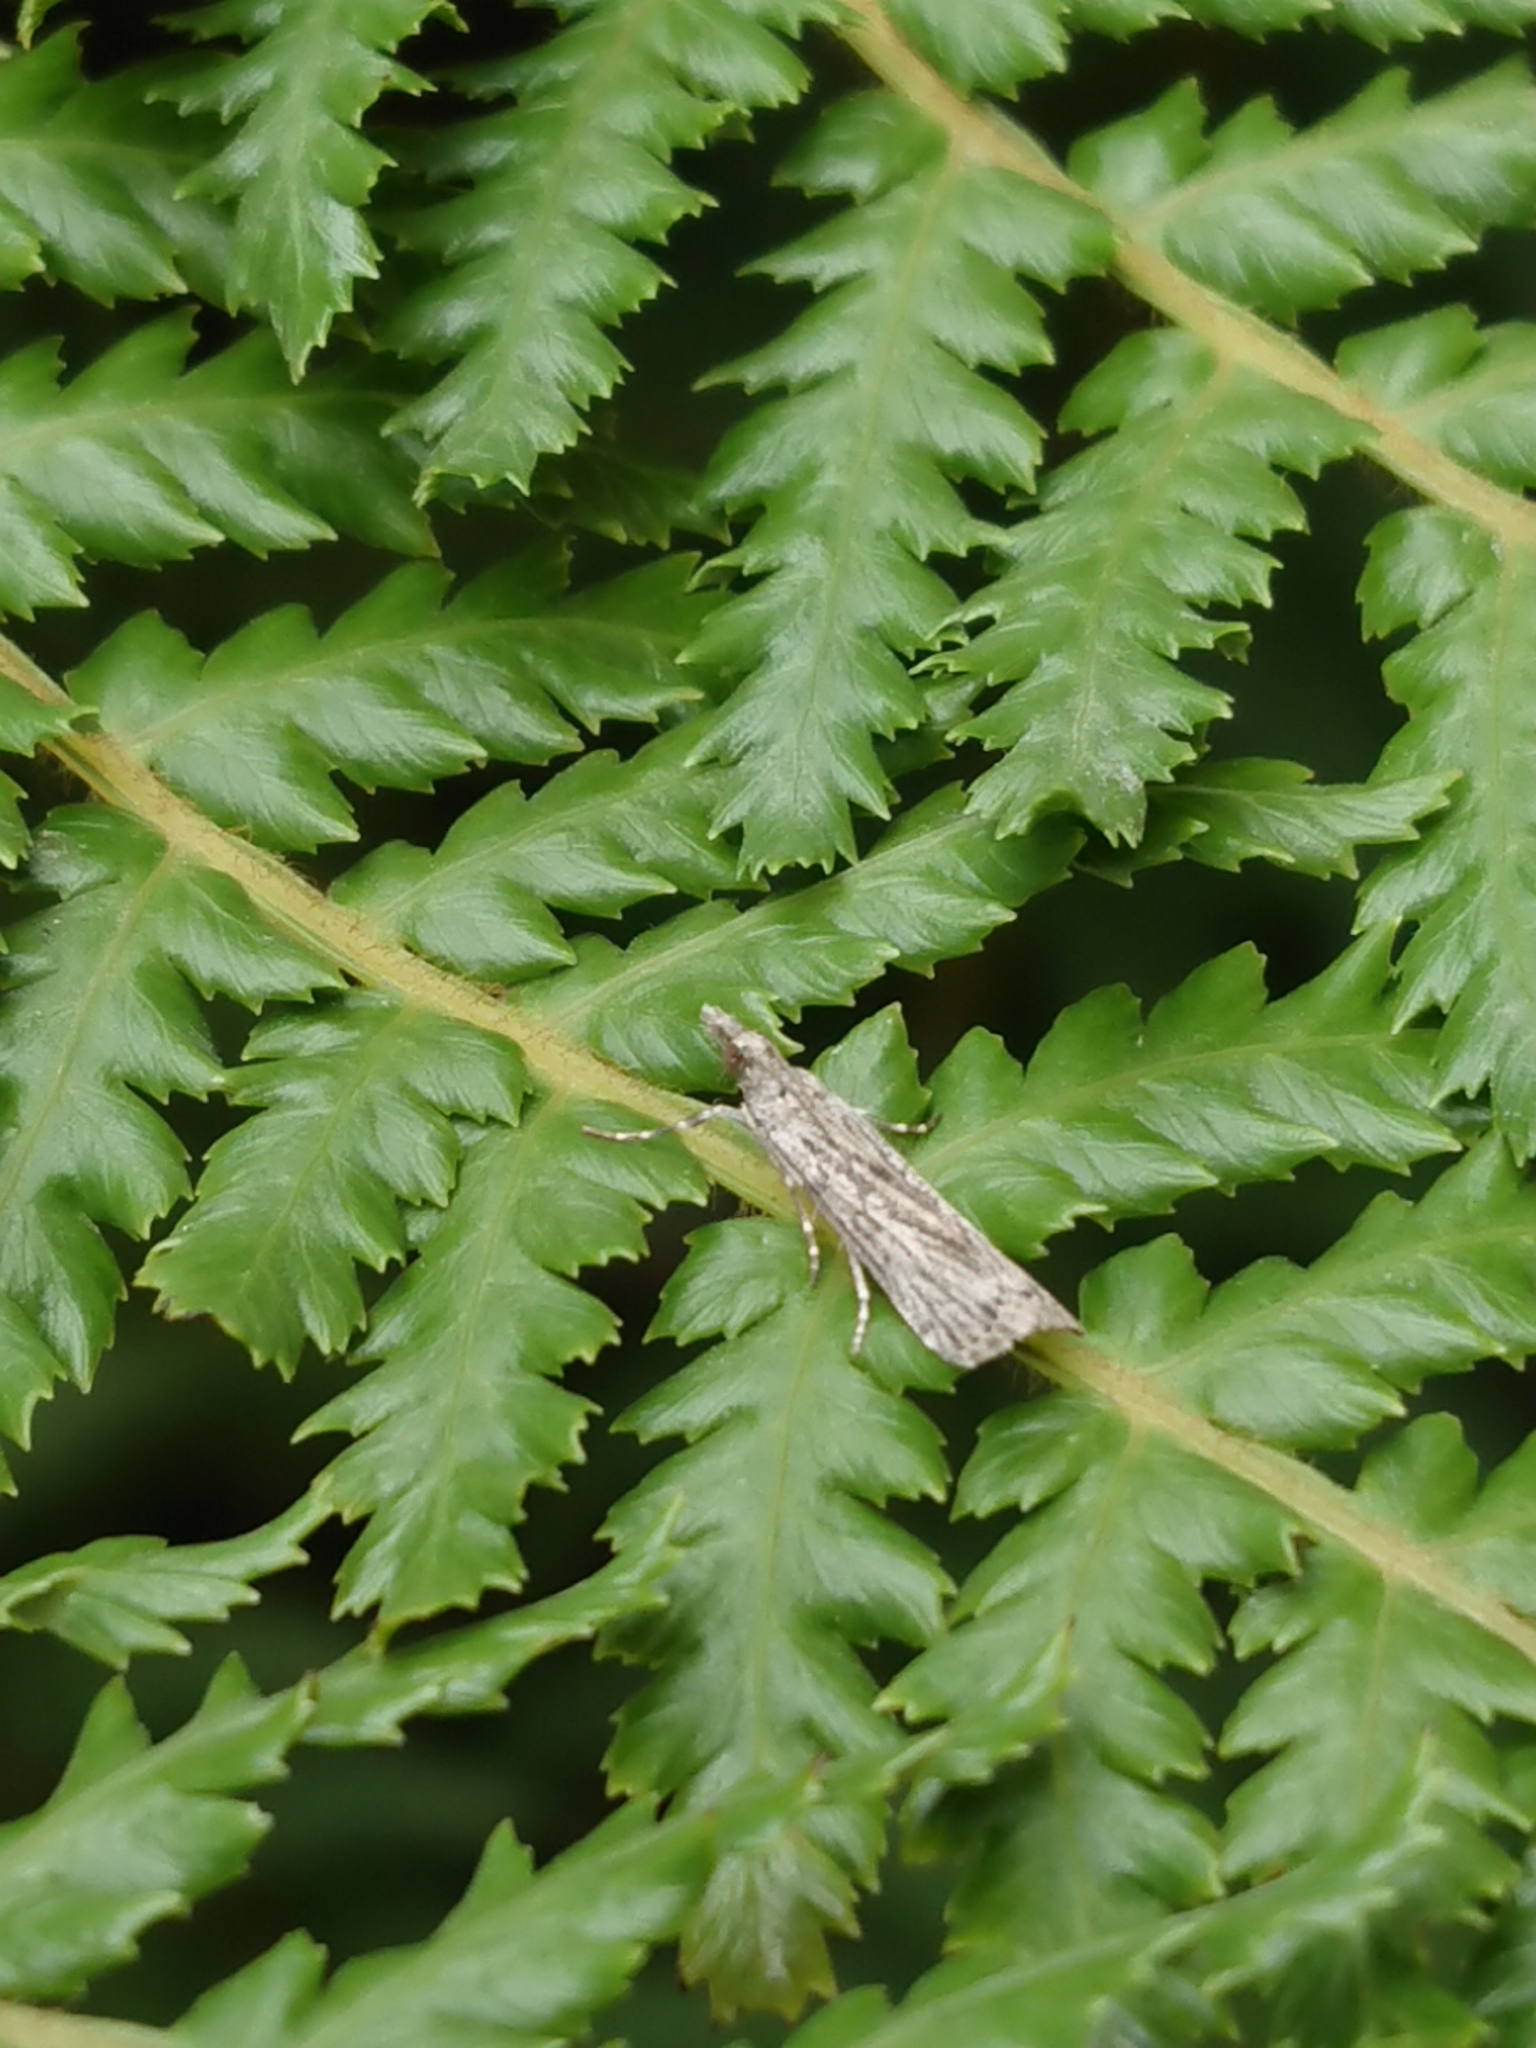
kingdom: Animalia
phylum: Arthropoda
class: Insecta
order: Lepidoptera
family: Crambidae
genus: Eudonia
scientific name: Eudonia atmogramma
